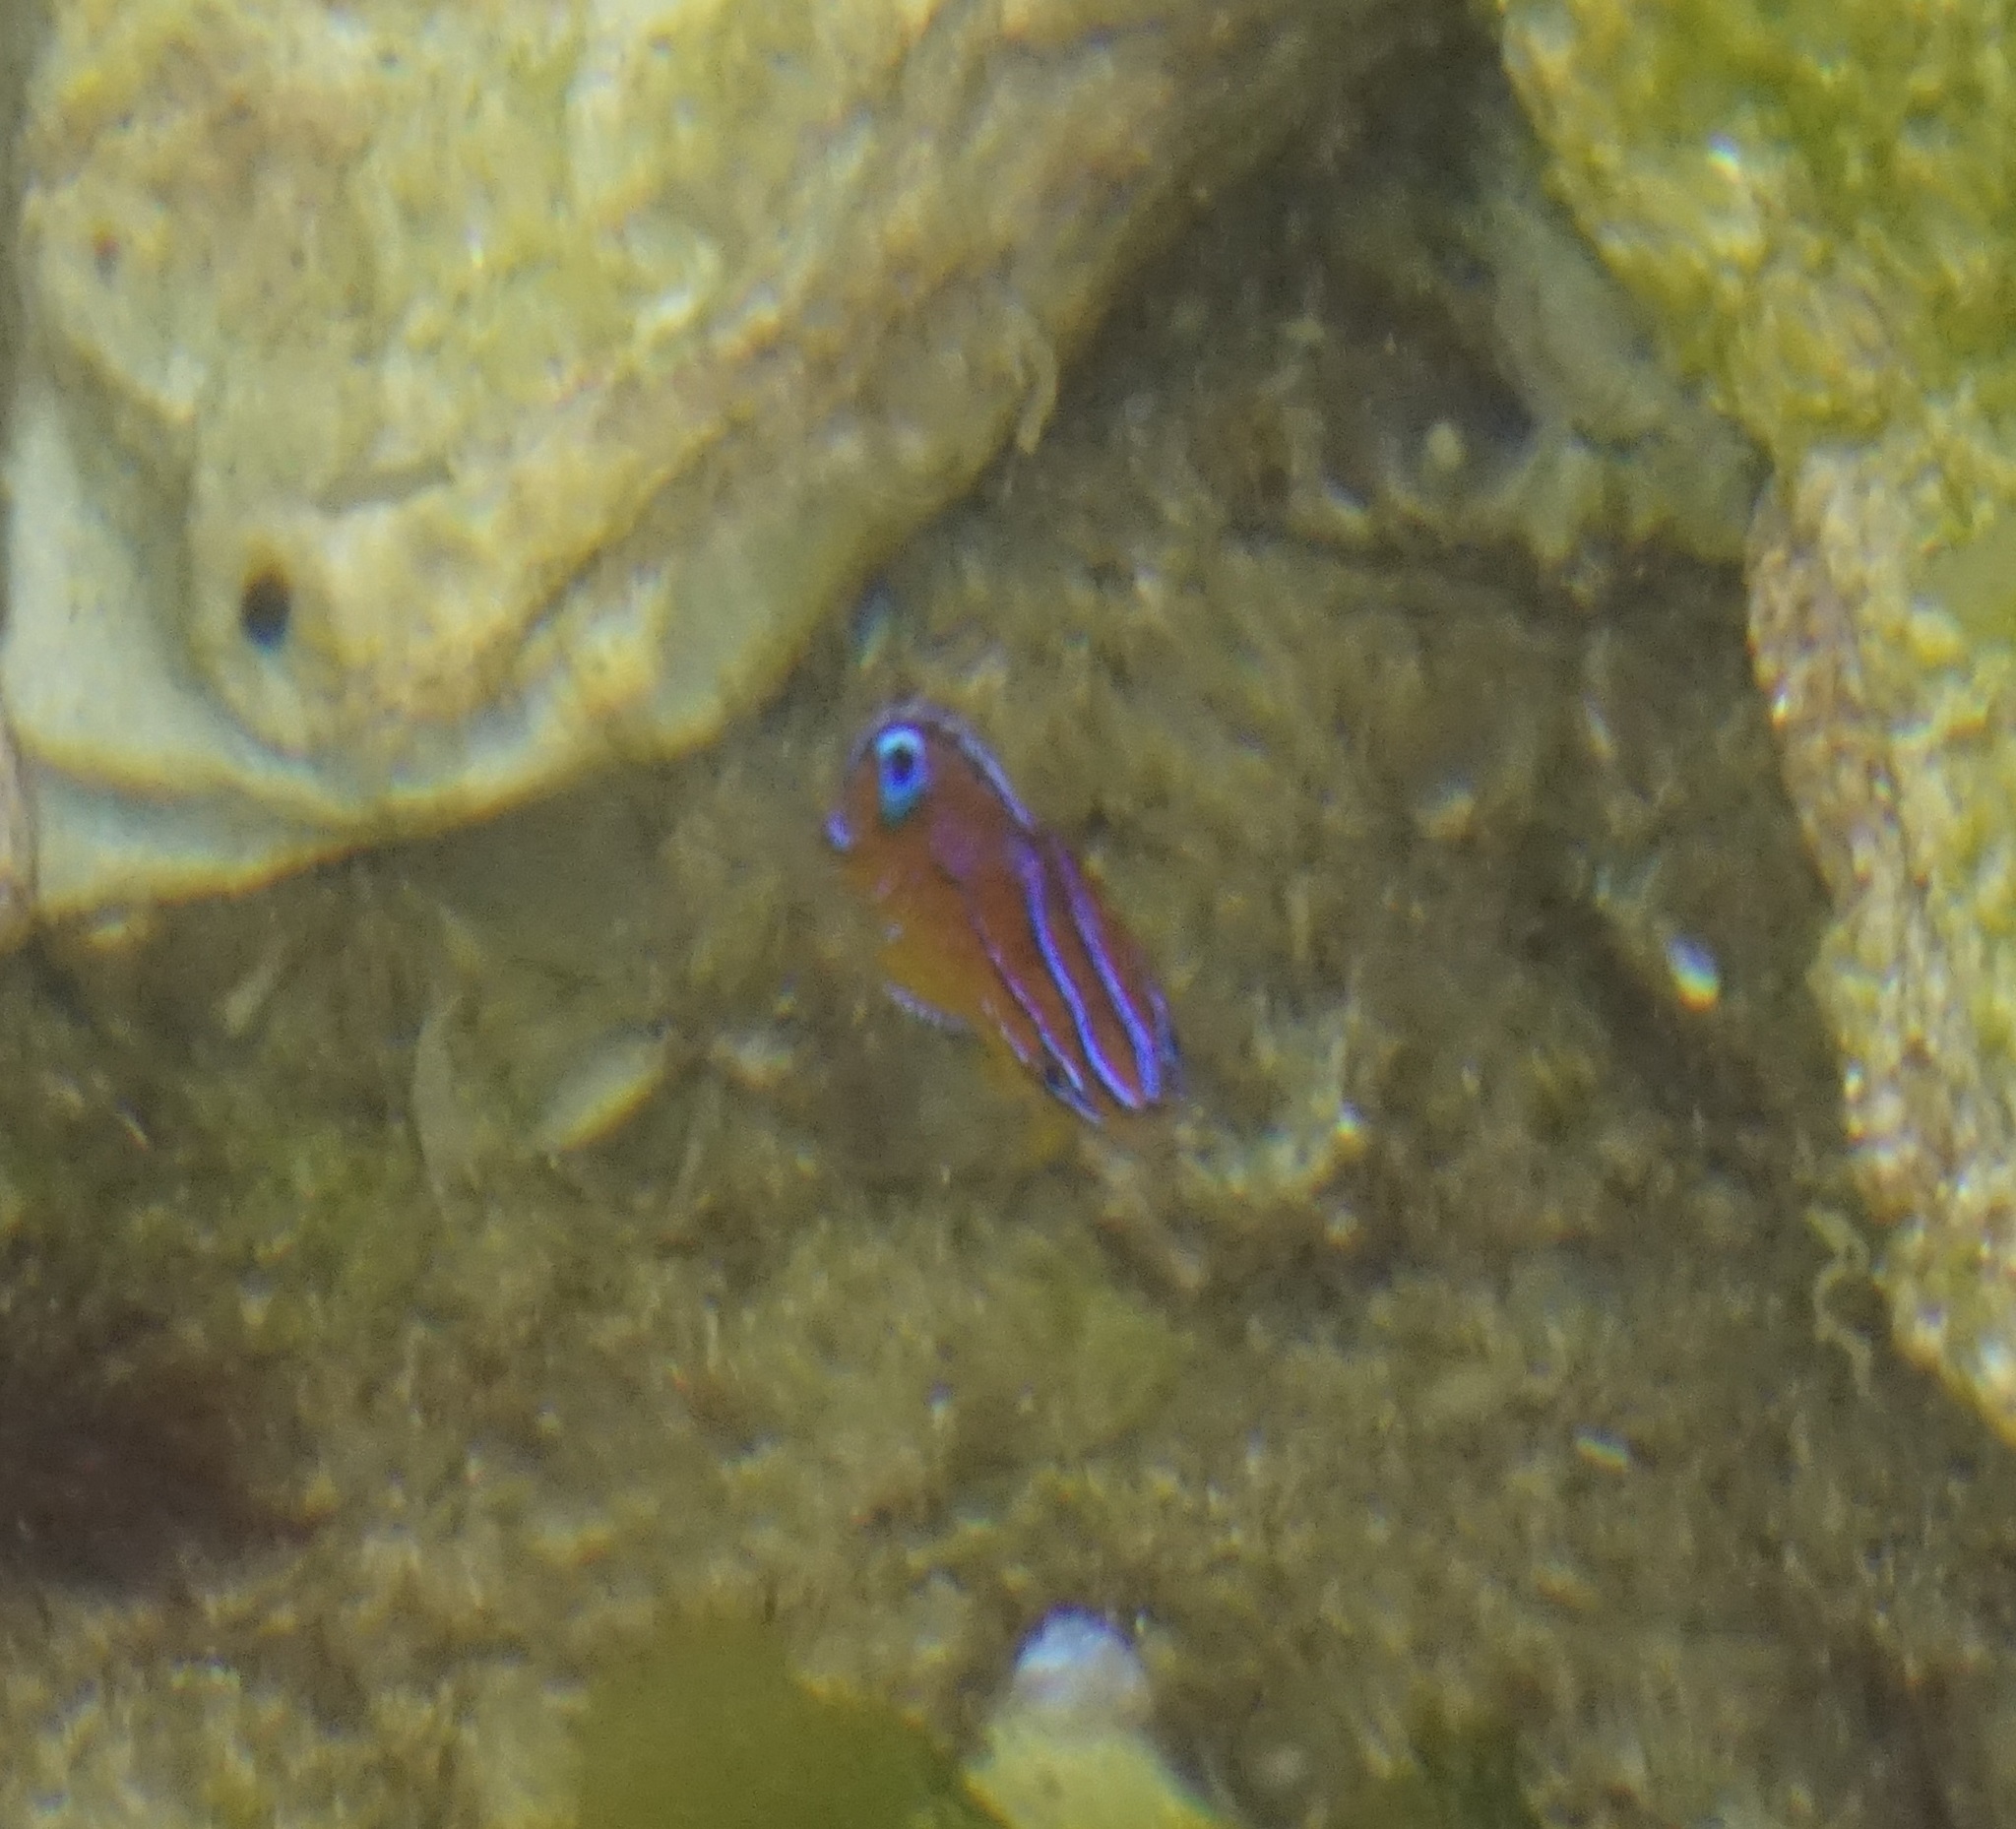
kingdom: Animalia
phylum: Chordata
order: Perciformes
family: Pomacentridae
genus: Parma
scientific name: Parma microlepis
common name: White-ear
